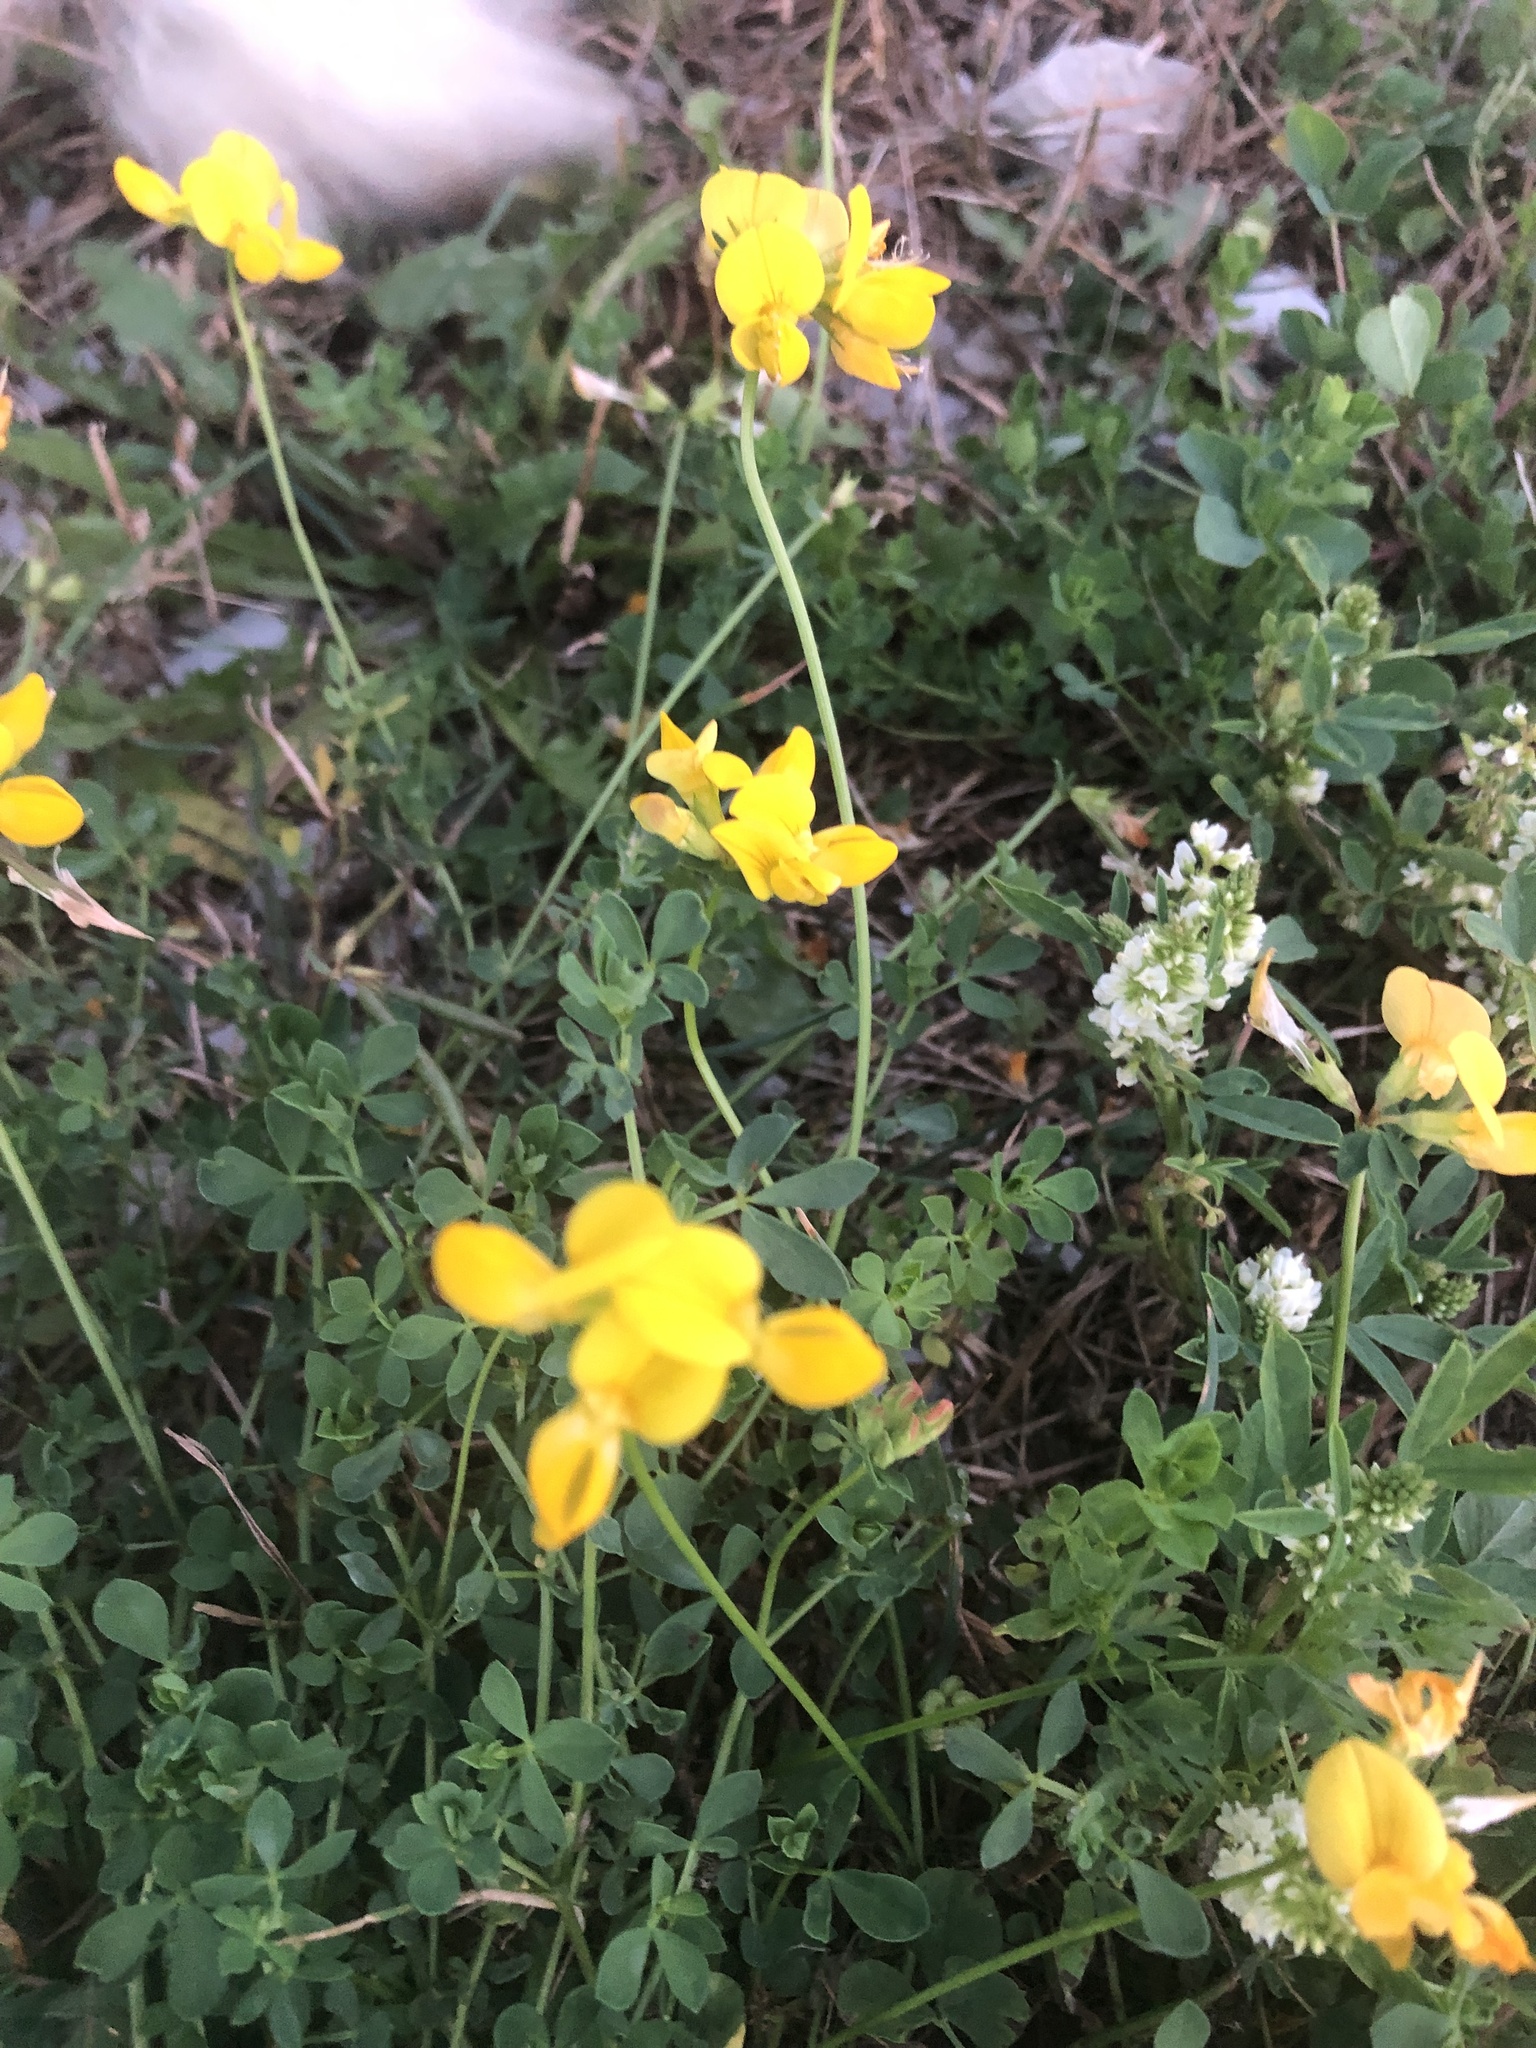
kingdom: Plantae
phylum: Tracheophyta
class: Magnoliopsida
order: Fabales
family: Fabaceae
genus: Lotus
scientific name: Lotus corniculatus
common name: Common bird's-foot-trefoil
